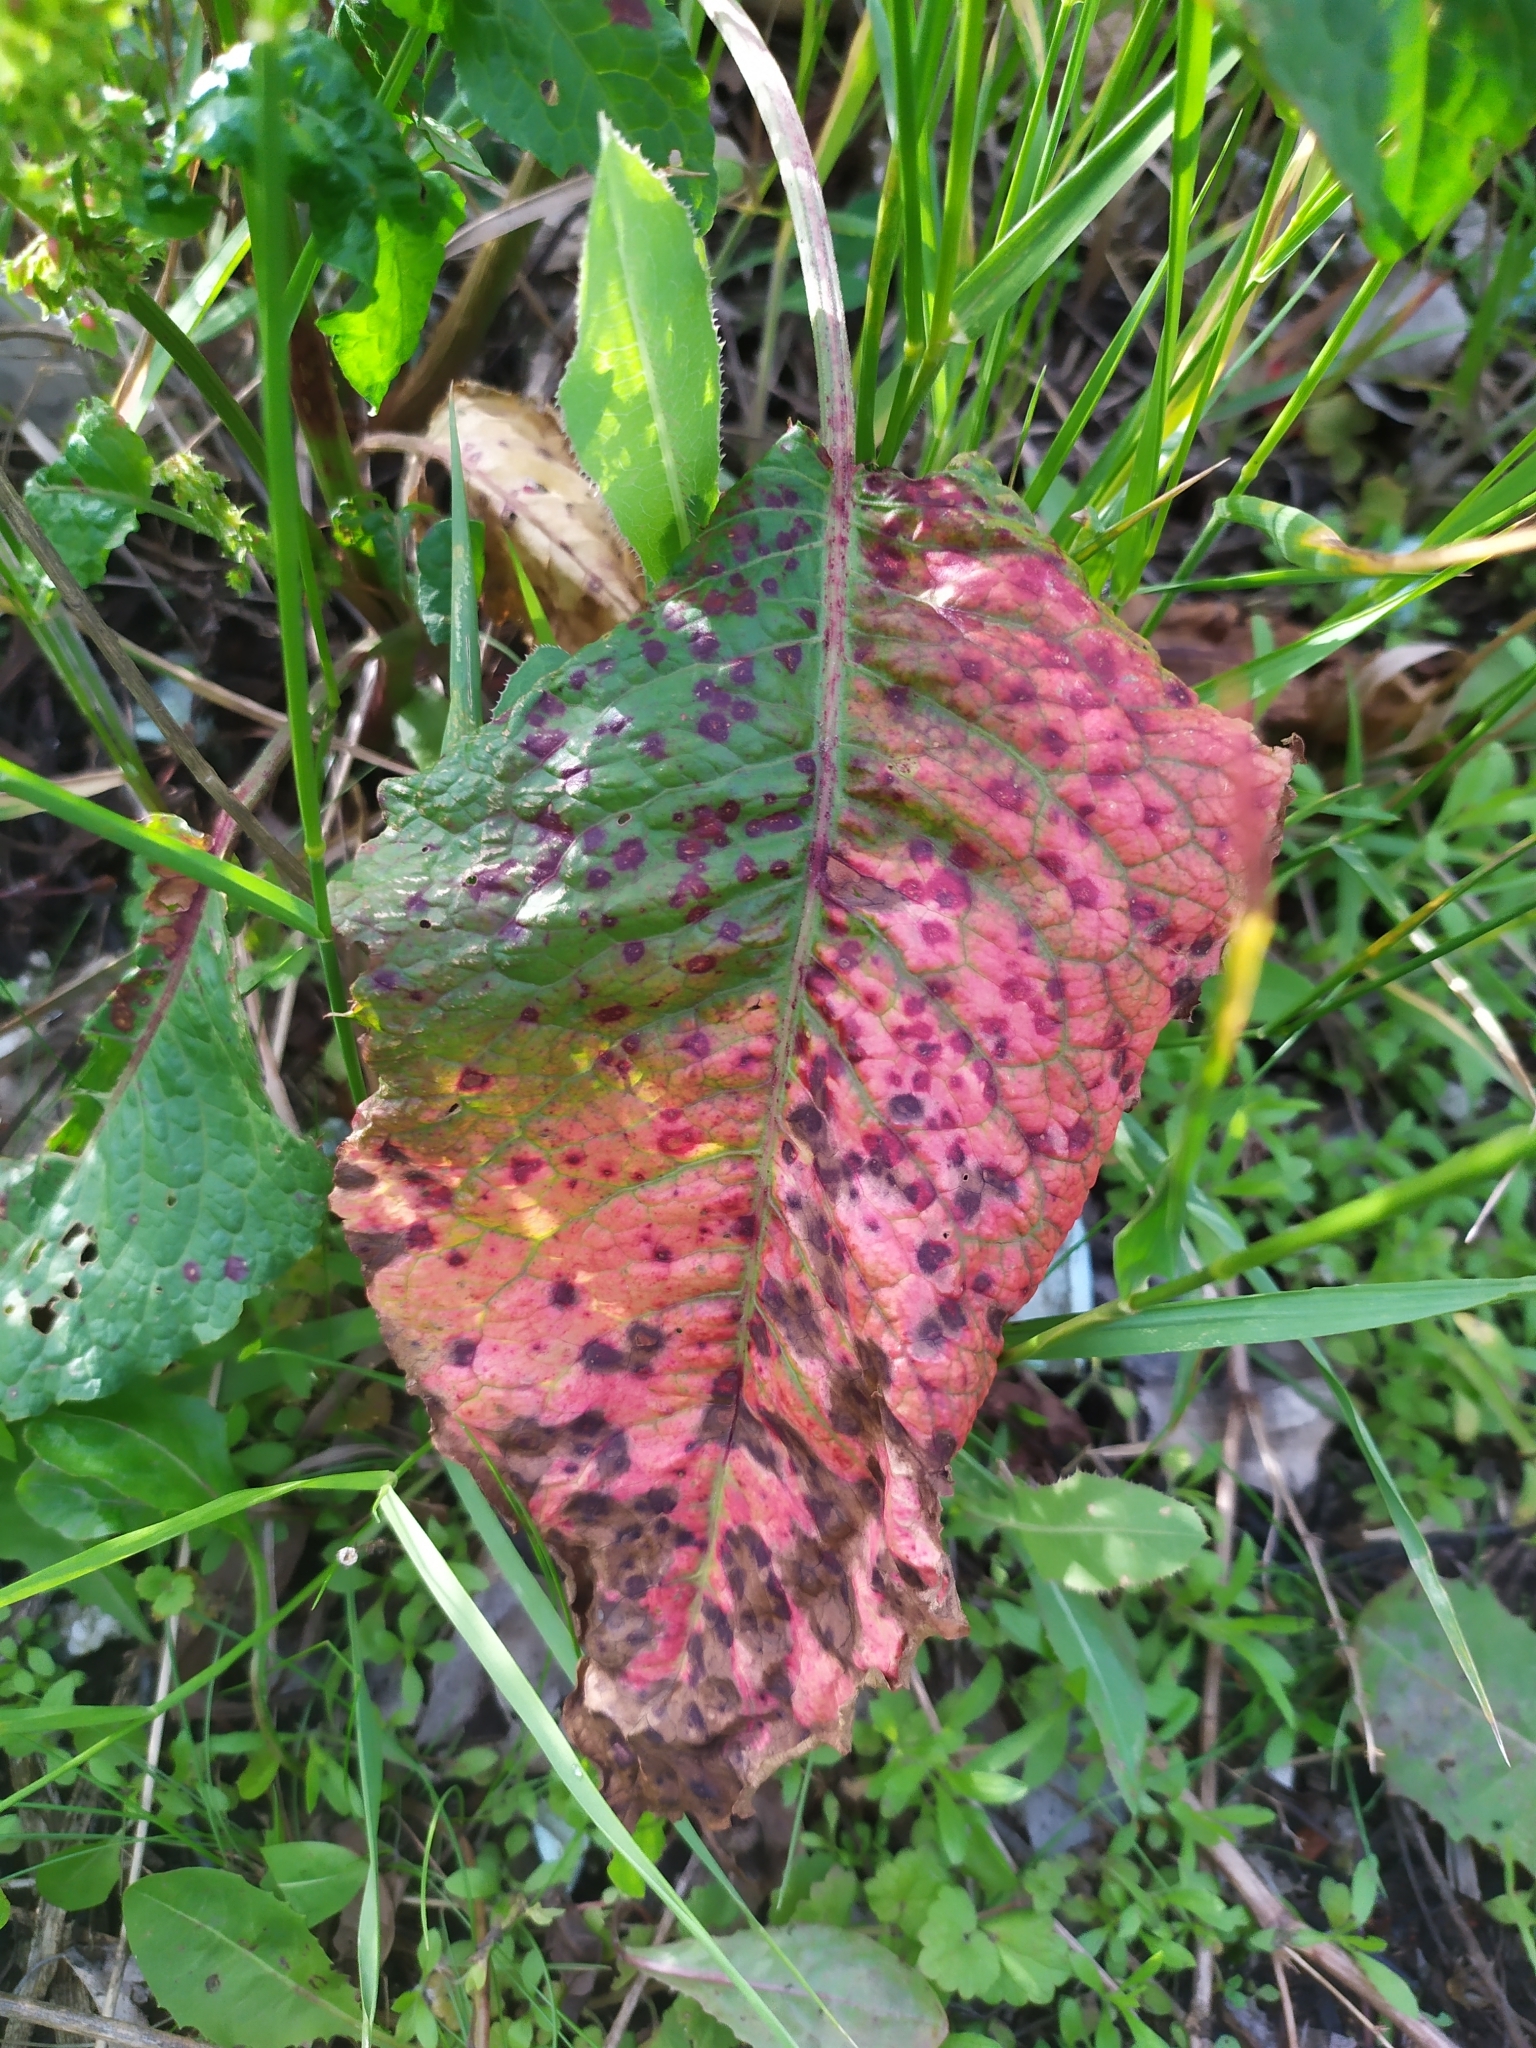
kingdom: Fungi
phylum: Ascomycota
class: Dothideomycetes
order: Mycosphaerellales
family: Mycosphaerellaceae
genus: Ramularia
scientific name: Ramularia rubella
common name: Red dock spot
